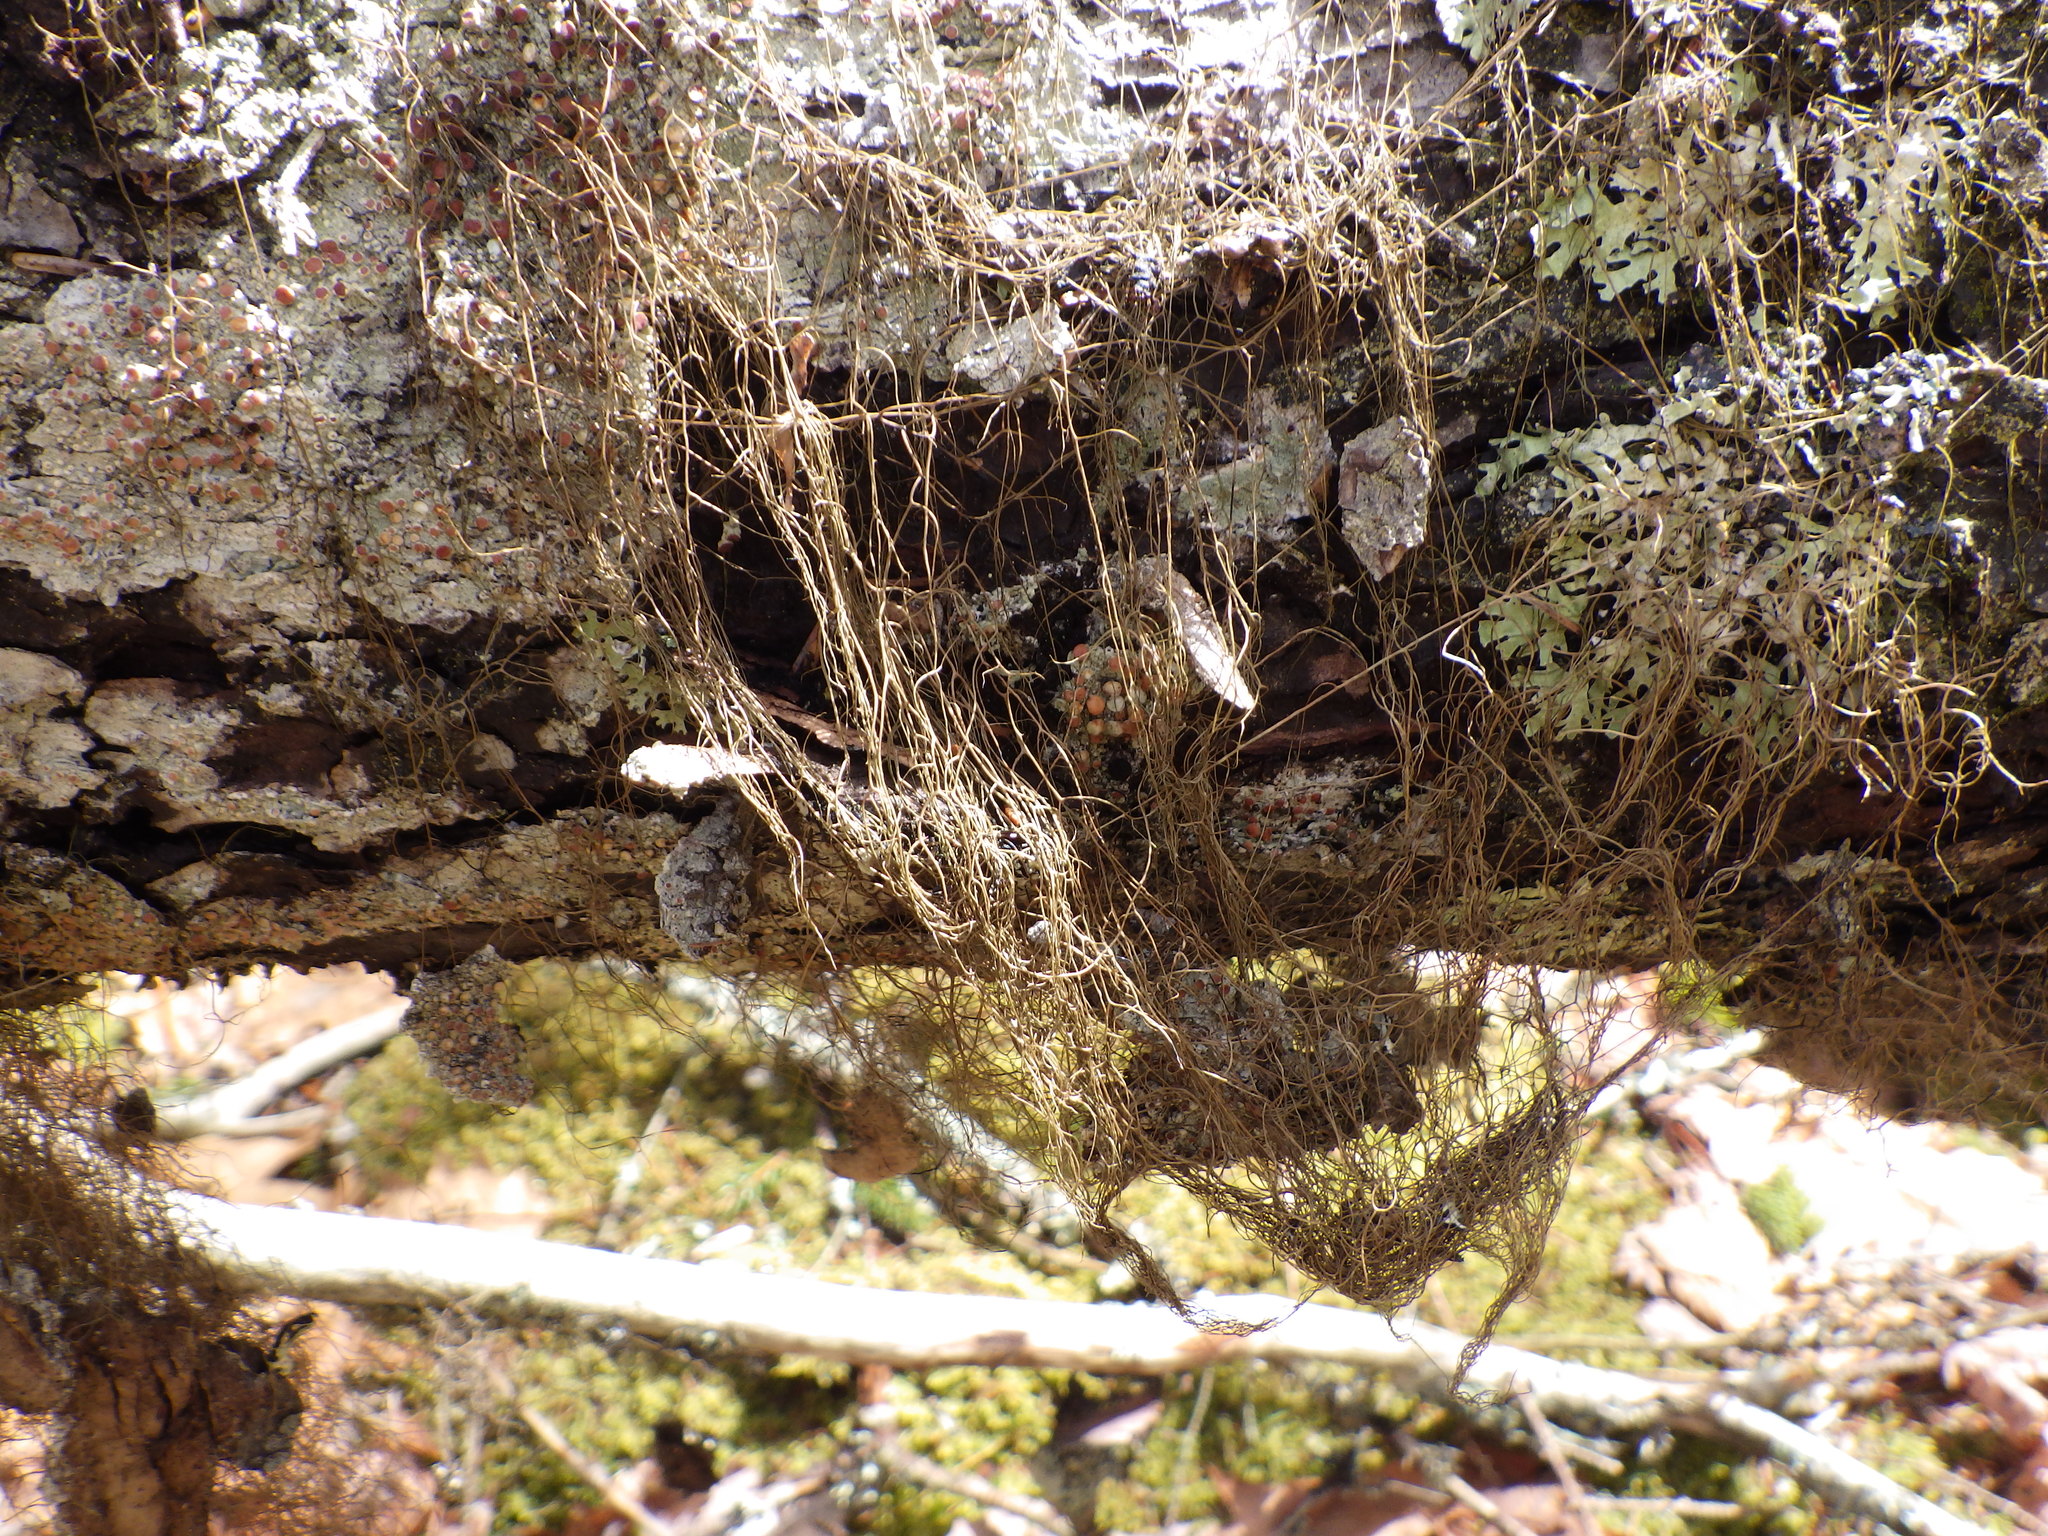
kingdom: Fungi
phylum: Ascomycota
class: Lecanoromycetes
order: Lecanorales
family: Parmeliaceae
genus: Bryoria
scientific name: Bryoria trichodes
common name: Inelegant horsehair lichen
